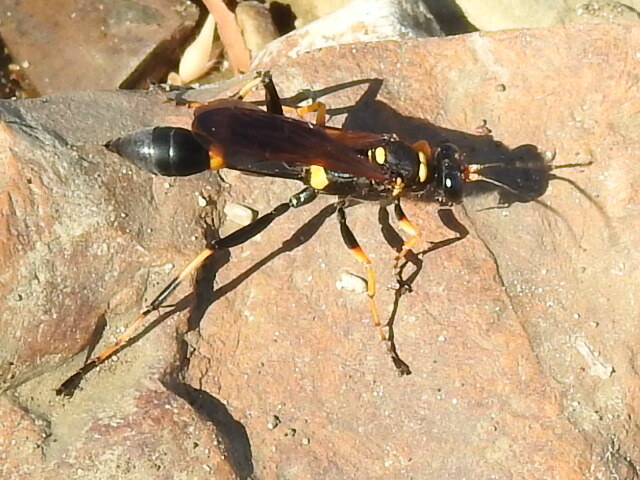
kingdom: Animalia
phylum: Arthropoda
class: Insecta
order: Hymenoptera
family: Sphecidae
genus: Sceliphron
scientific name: Sceliphron caementarium
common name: Mud dauber
